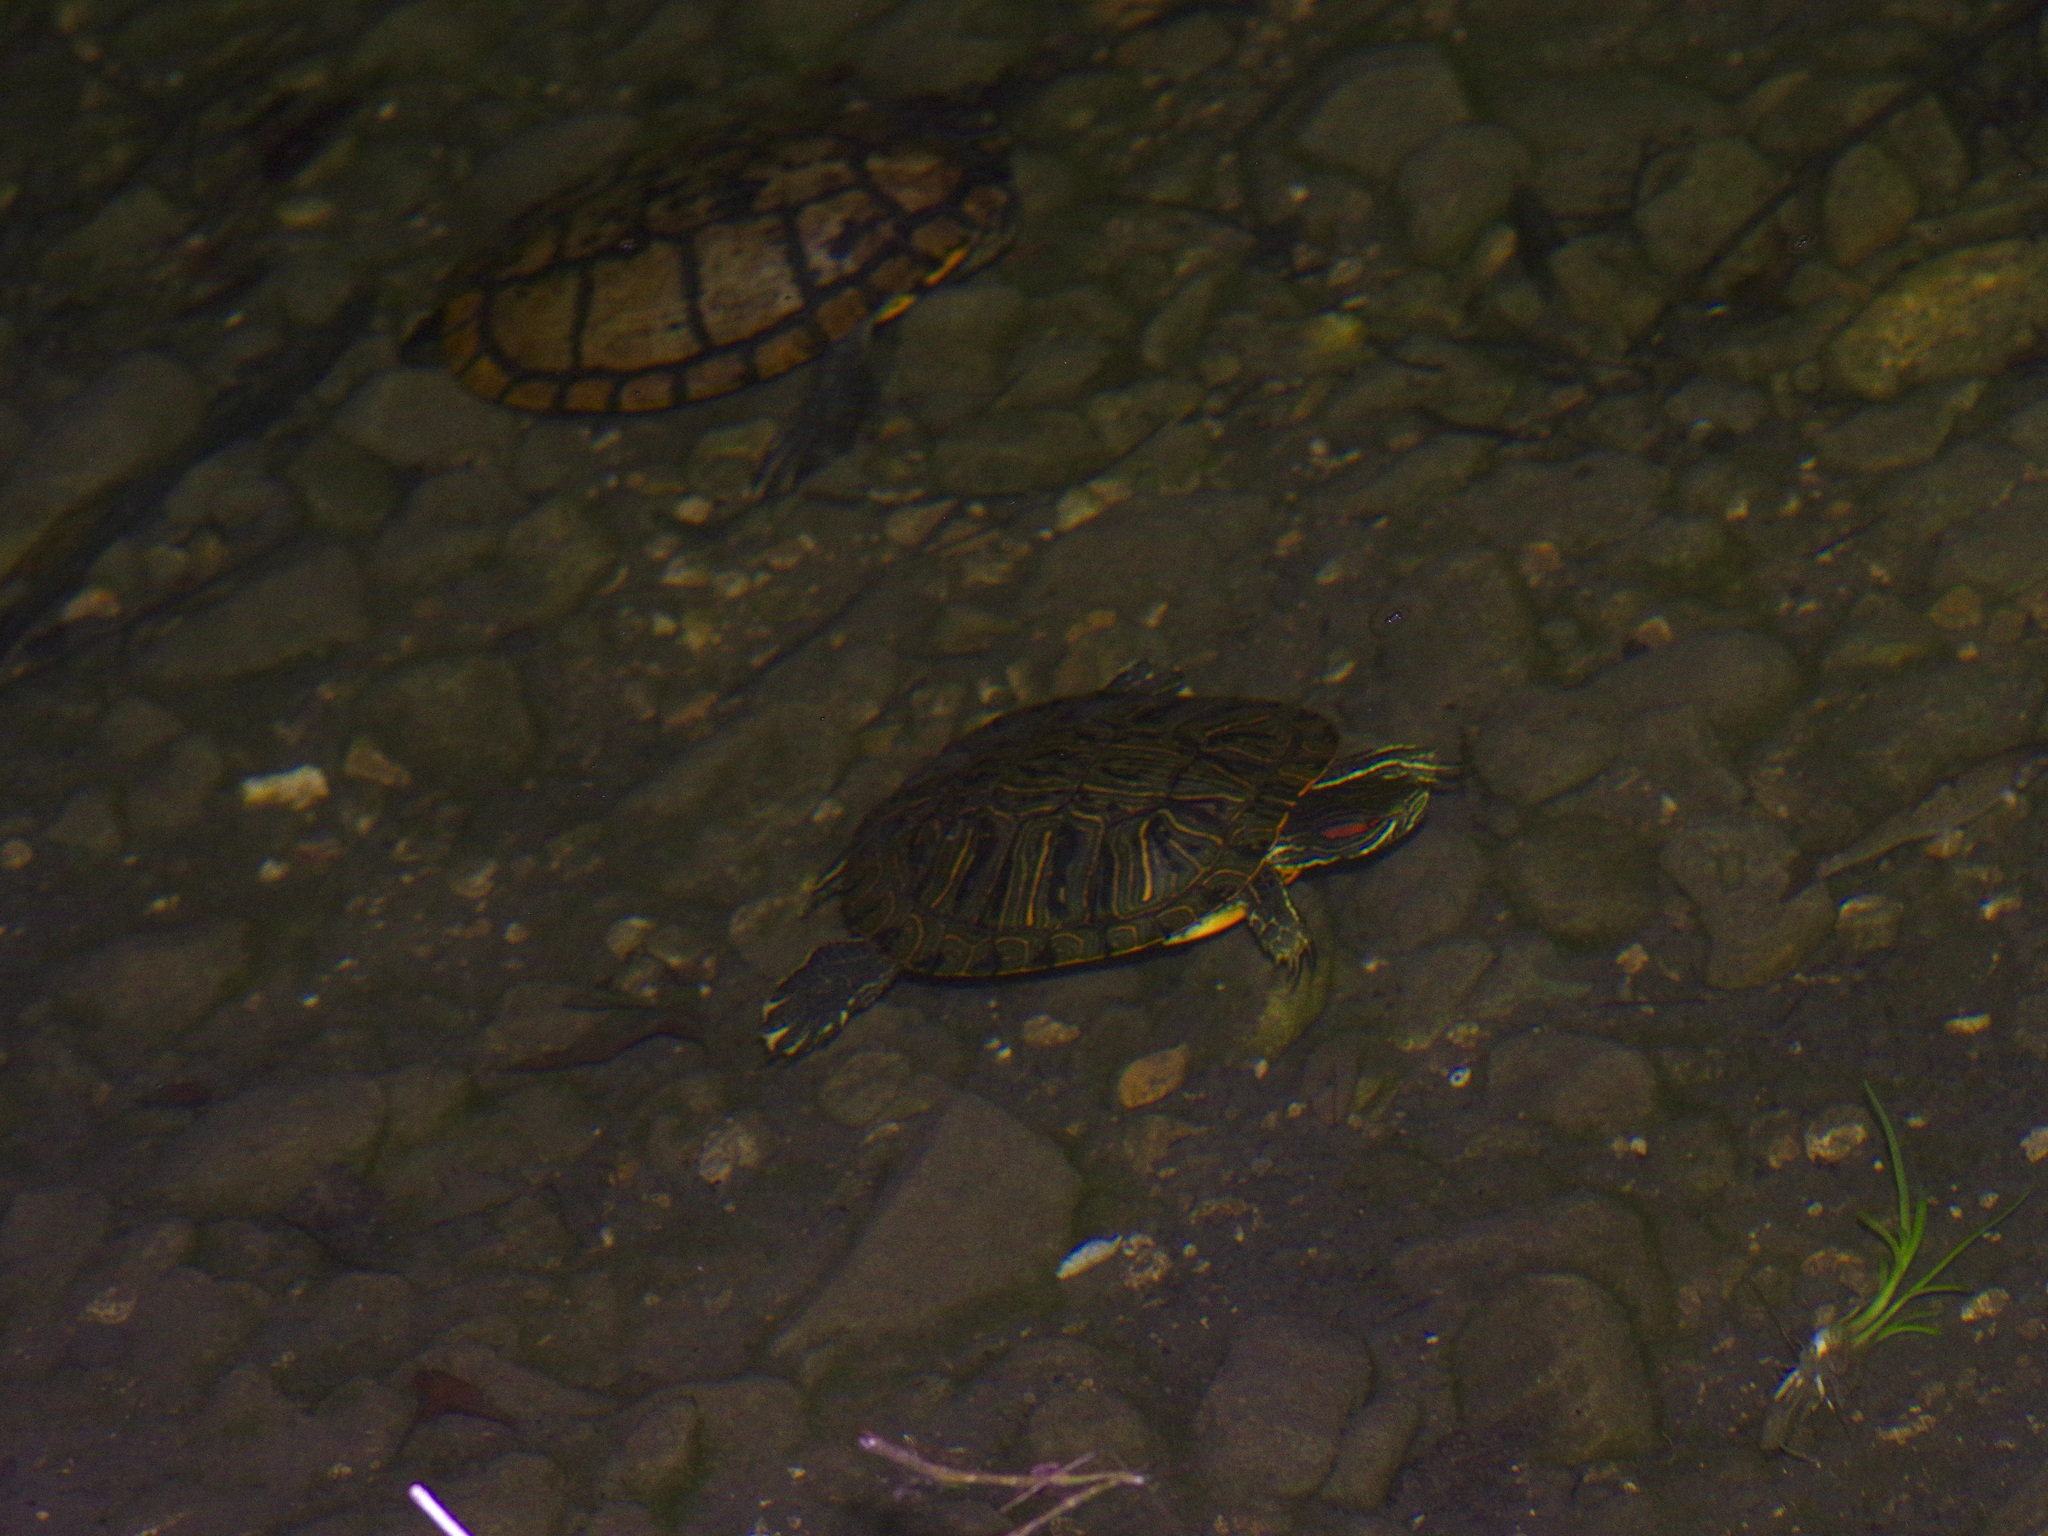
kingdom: Animalia
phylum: Chordata
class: Testudines
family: Emydidae
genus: Trachemys
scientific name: Trachemys scripta
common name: Slider
